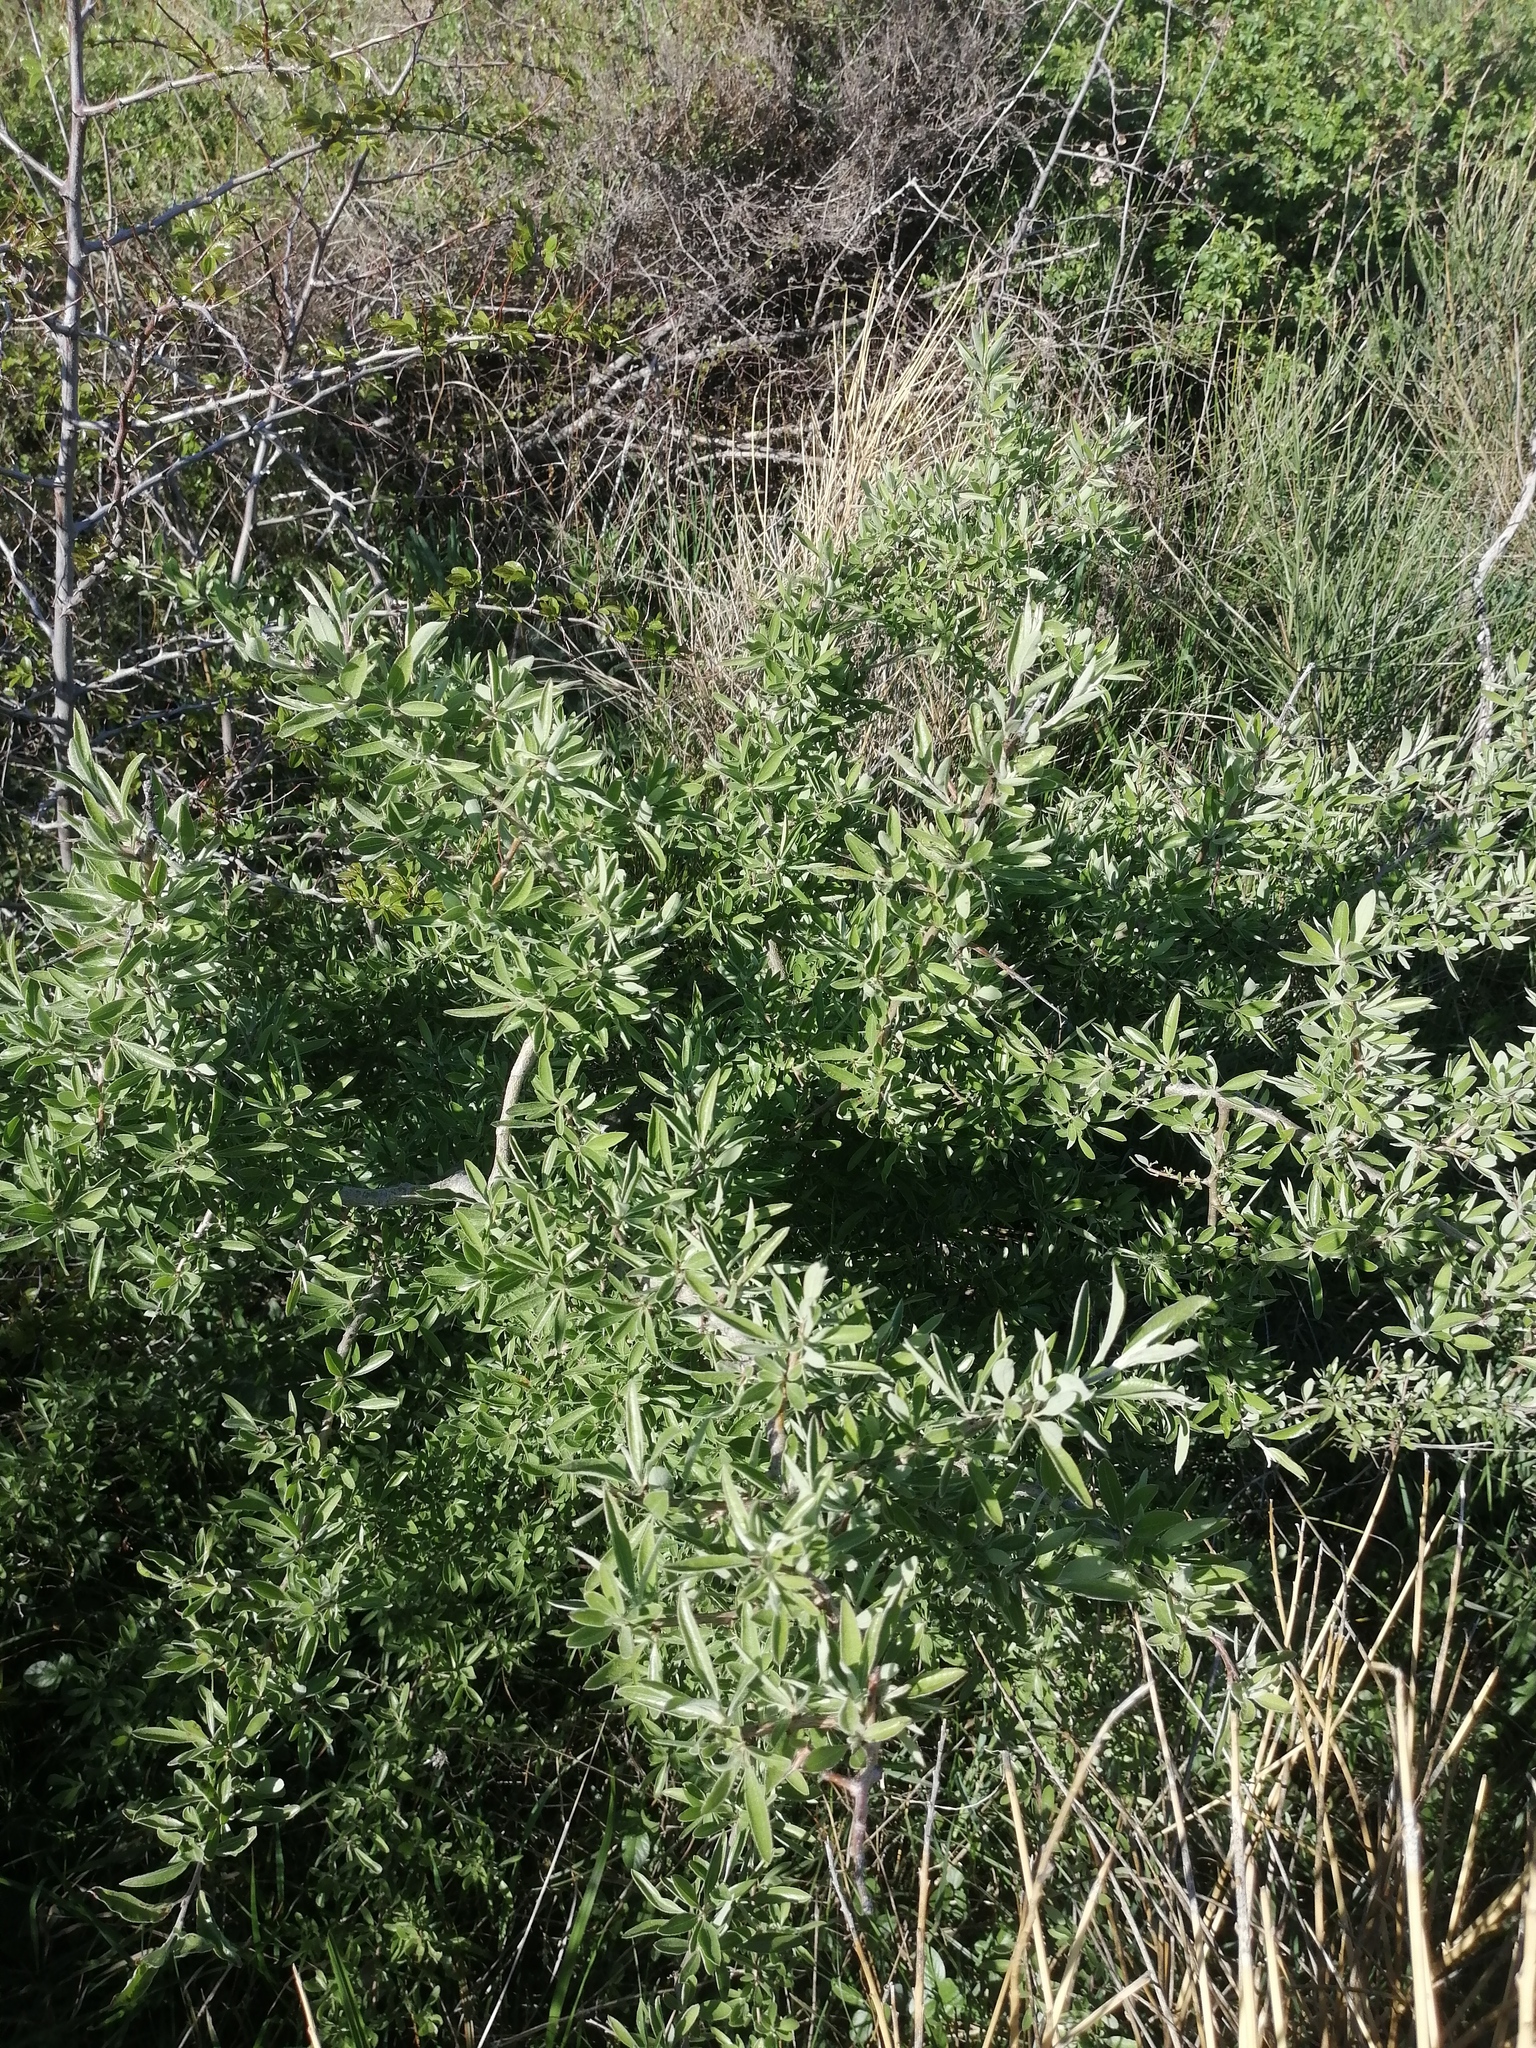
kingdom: Plantae
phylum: Tracheophyta
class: Magnoliopsida
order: Rosales
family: Rosaceae
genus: Pyrus
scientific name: Pyrus spinosa
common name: Almond-leaf pear
